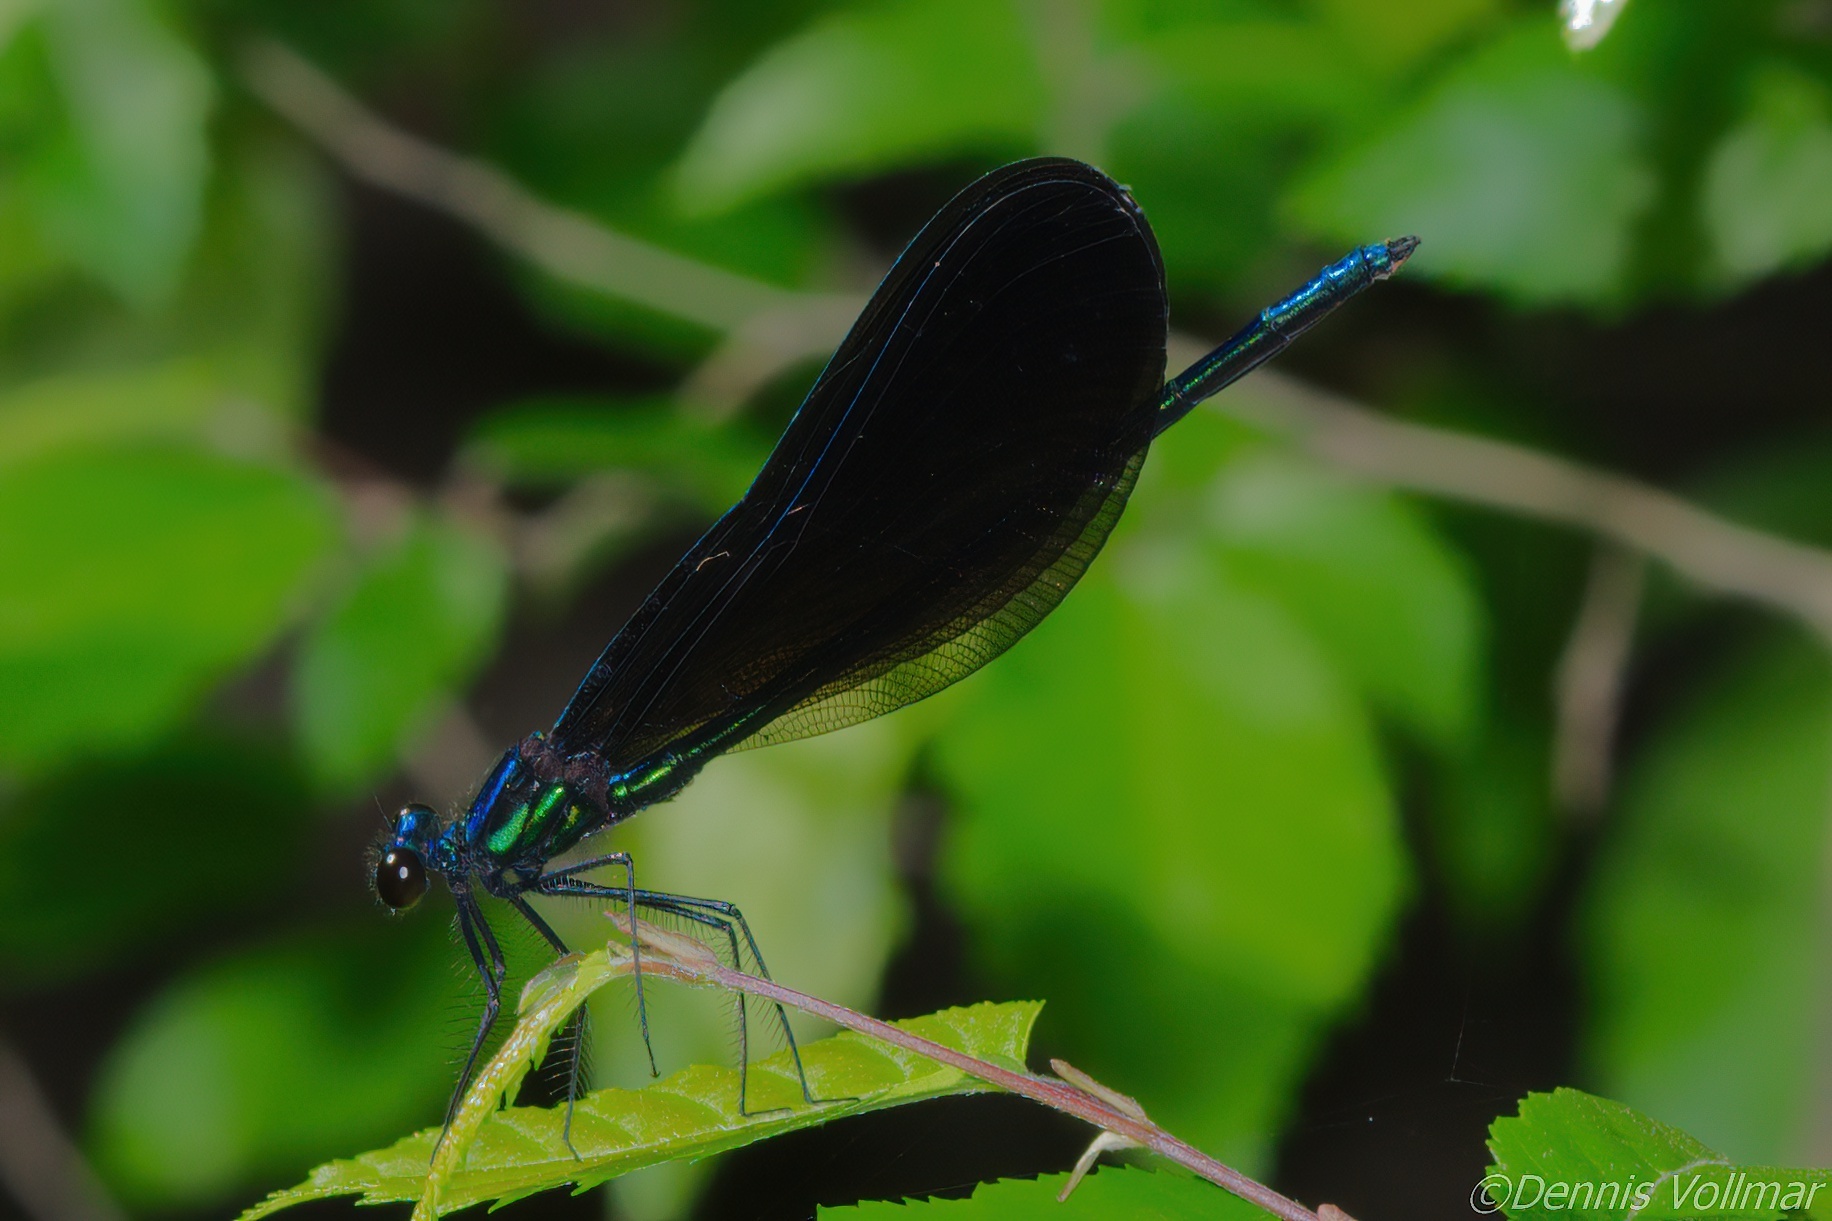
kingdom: Animalia
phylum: Arthropoda
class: Insecta
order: Odonata
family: Calopterygidae
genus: Calopteryx
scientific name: Calopteryx maculata
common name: Ebony jewelwing
